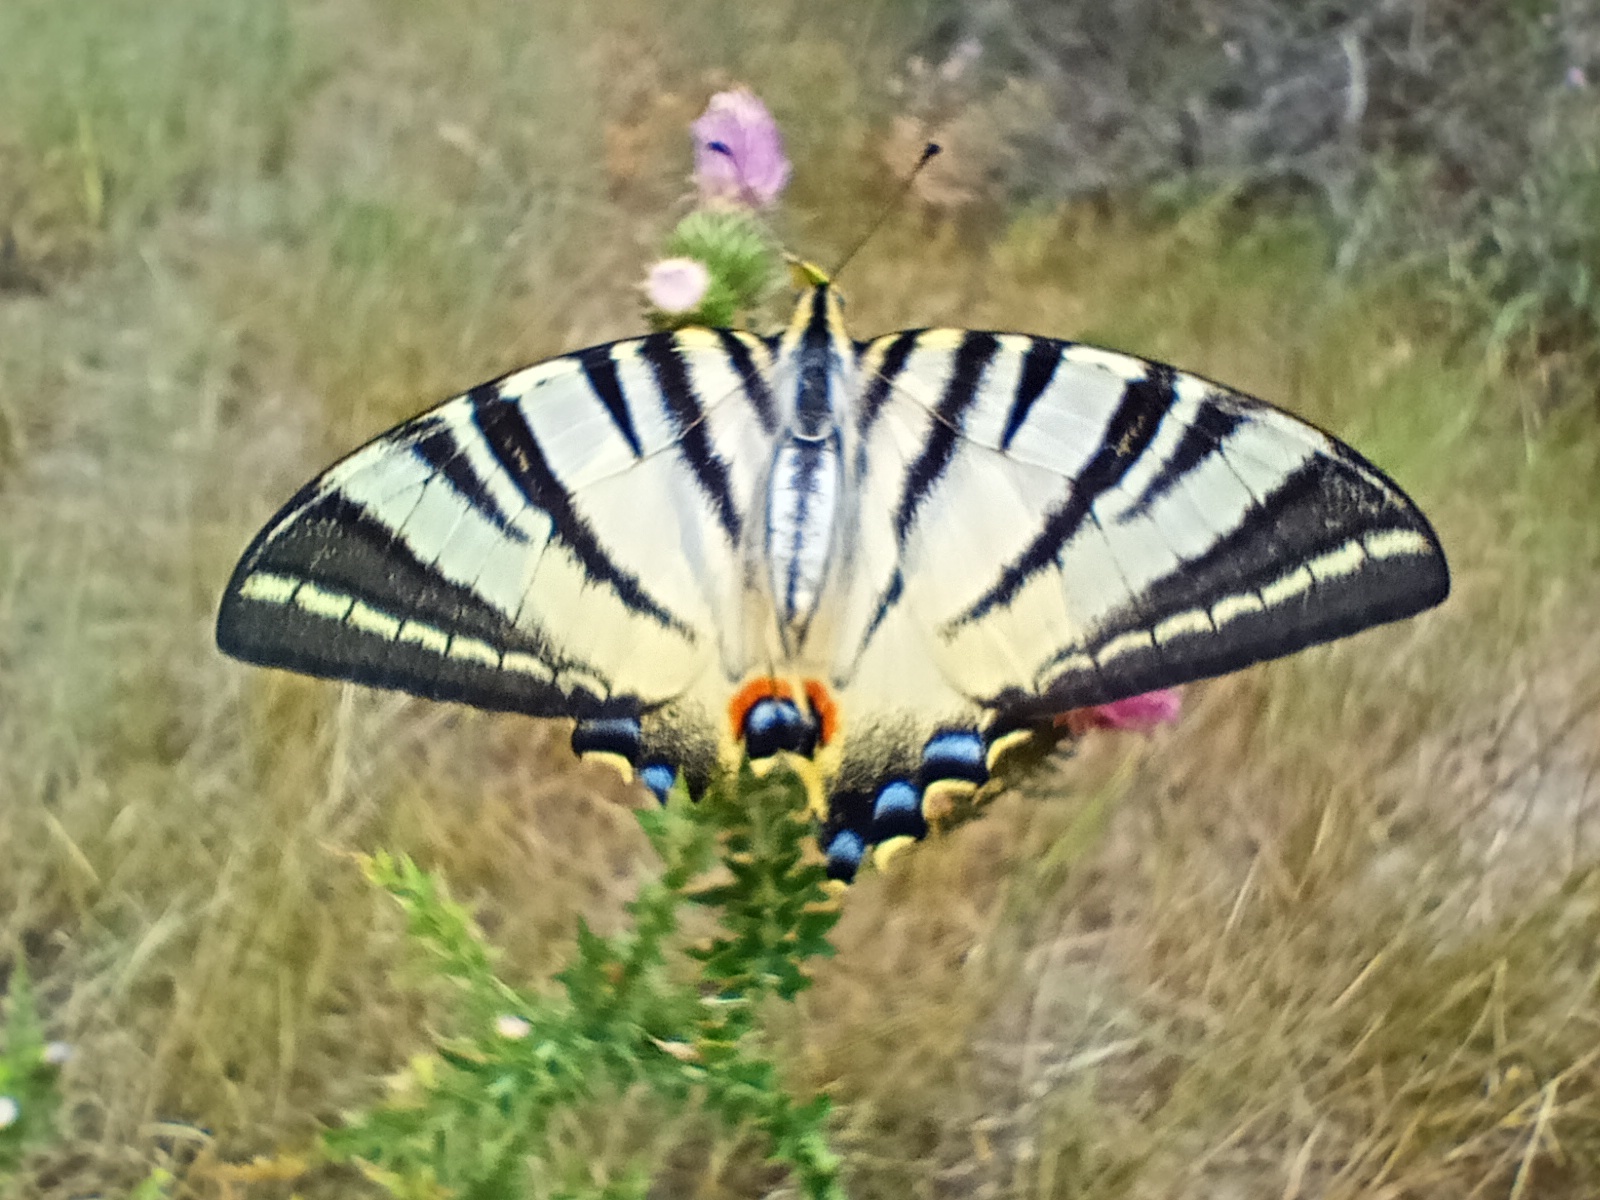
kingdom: Animalia
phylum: Arthropoda
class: Insecta
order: Lepidoptera
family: Papilionidae
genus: Iphiclides
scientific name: Iphiclides podalirius
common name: Scarce swallowtail
